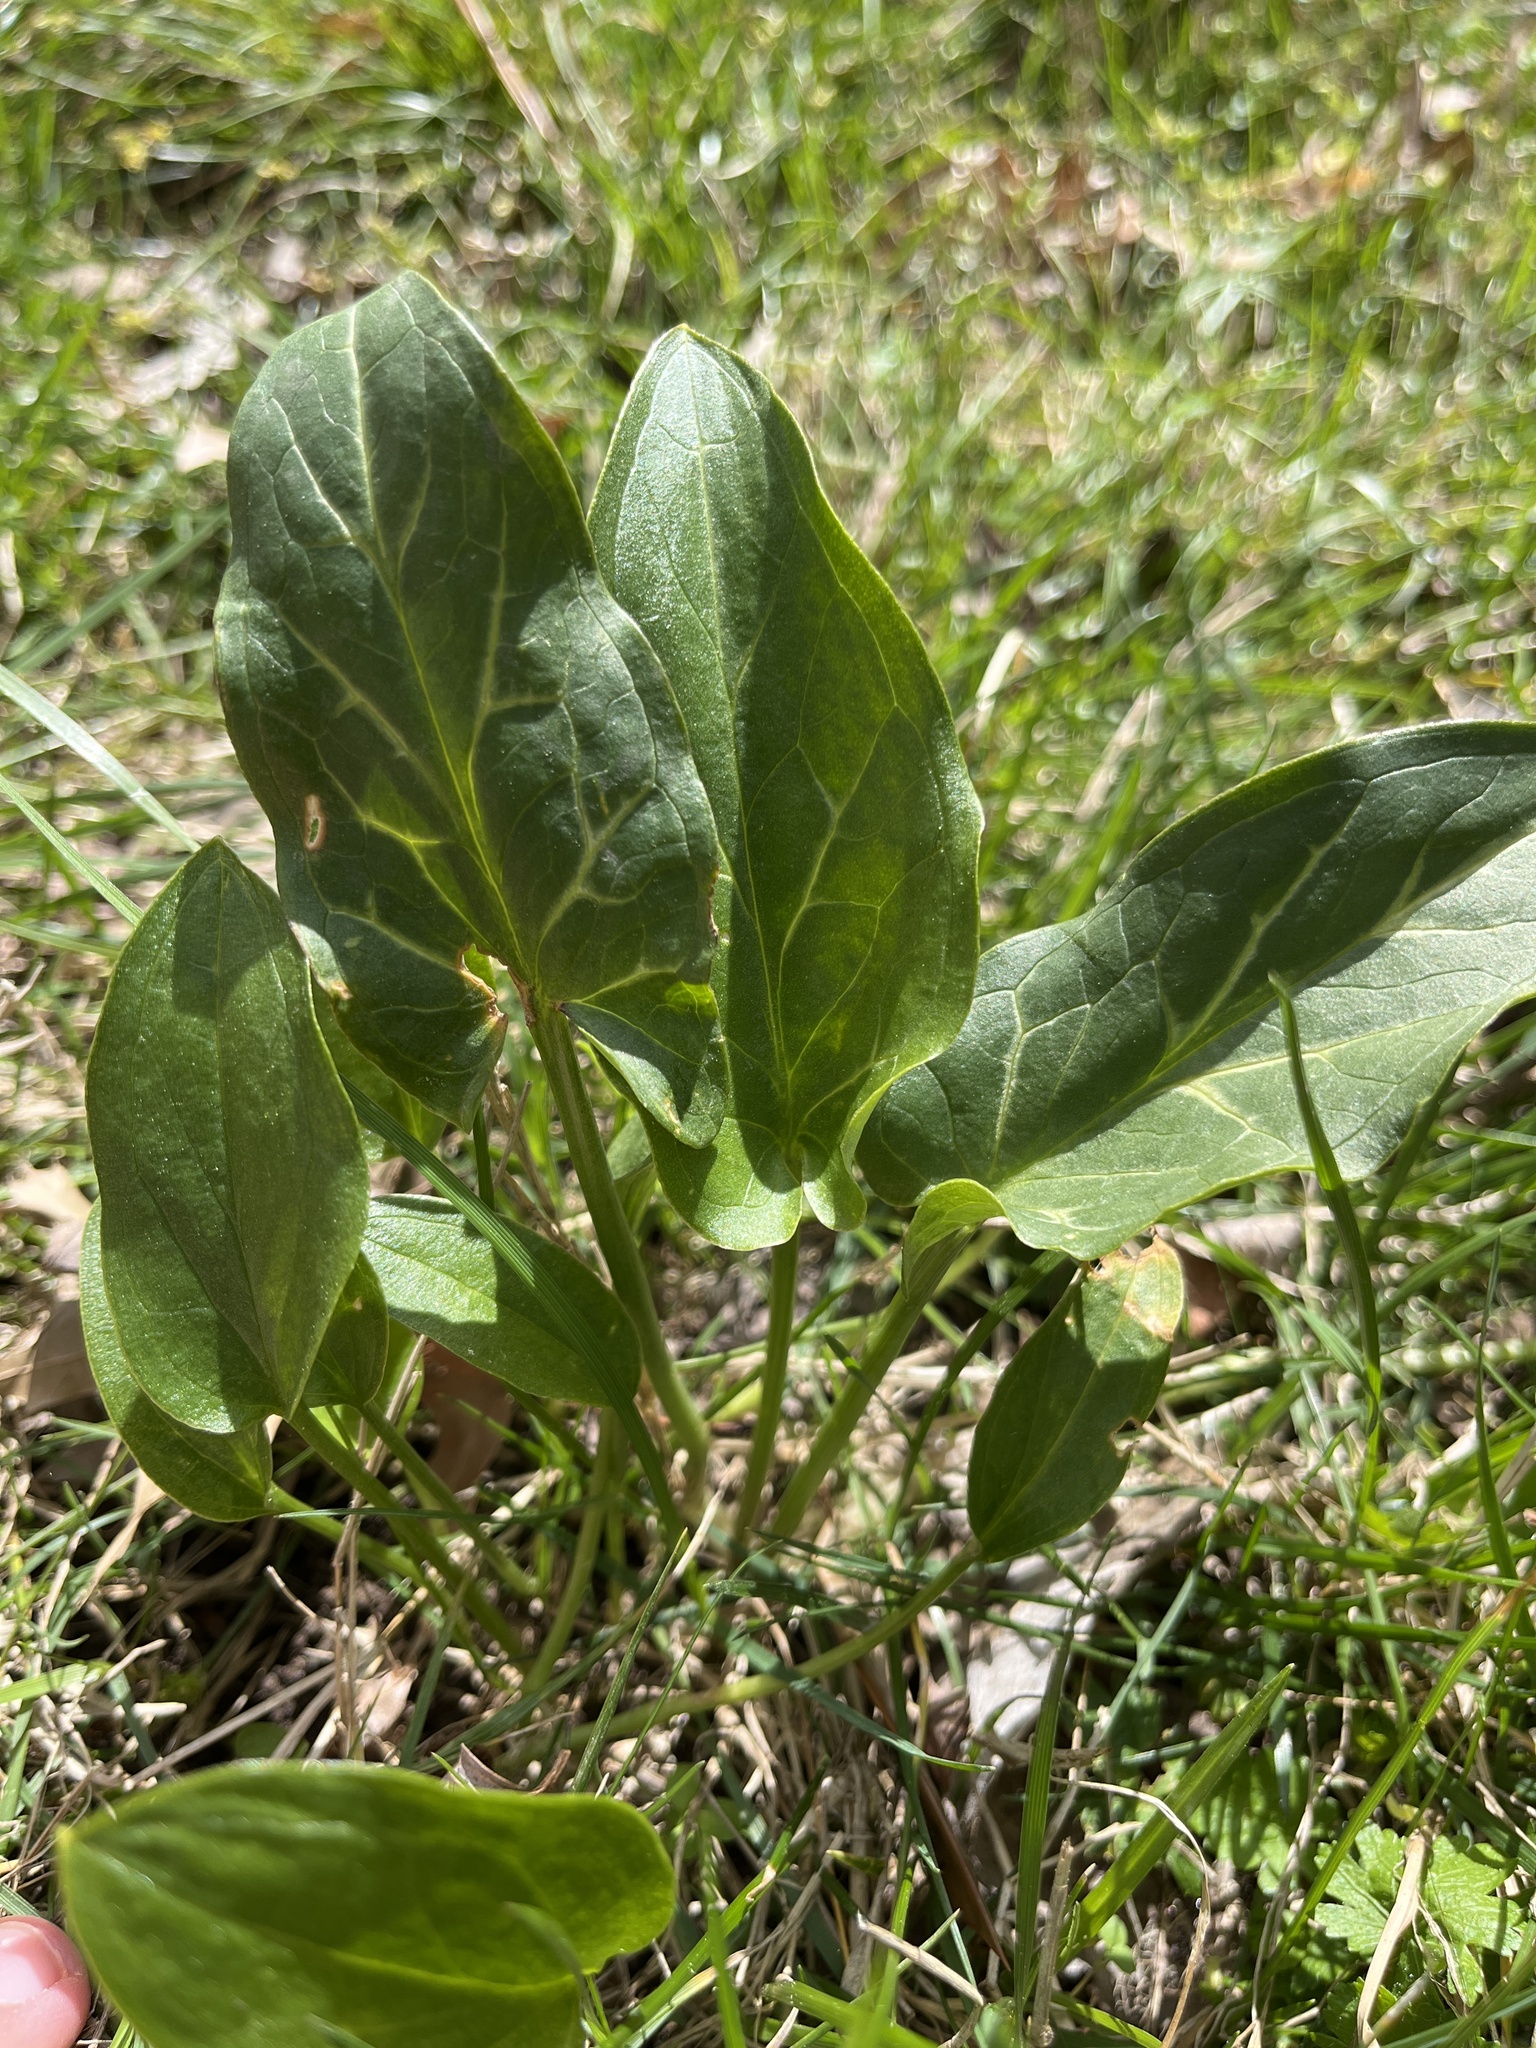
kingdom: Plantae
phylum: Tracheophyta
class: Liliopsida
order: Alismatales
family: Araceae
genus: Arum
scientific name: Arum italicum
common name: Italian lords-and-ladies
